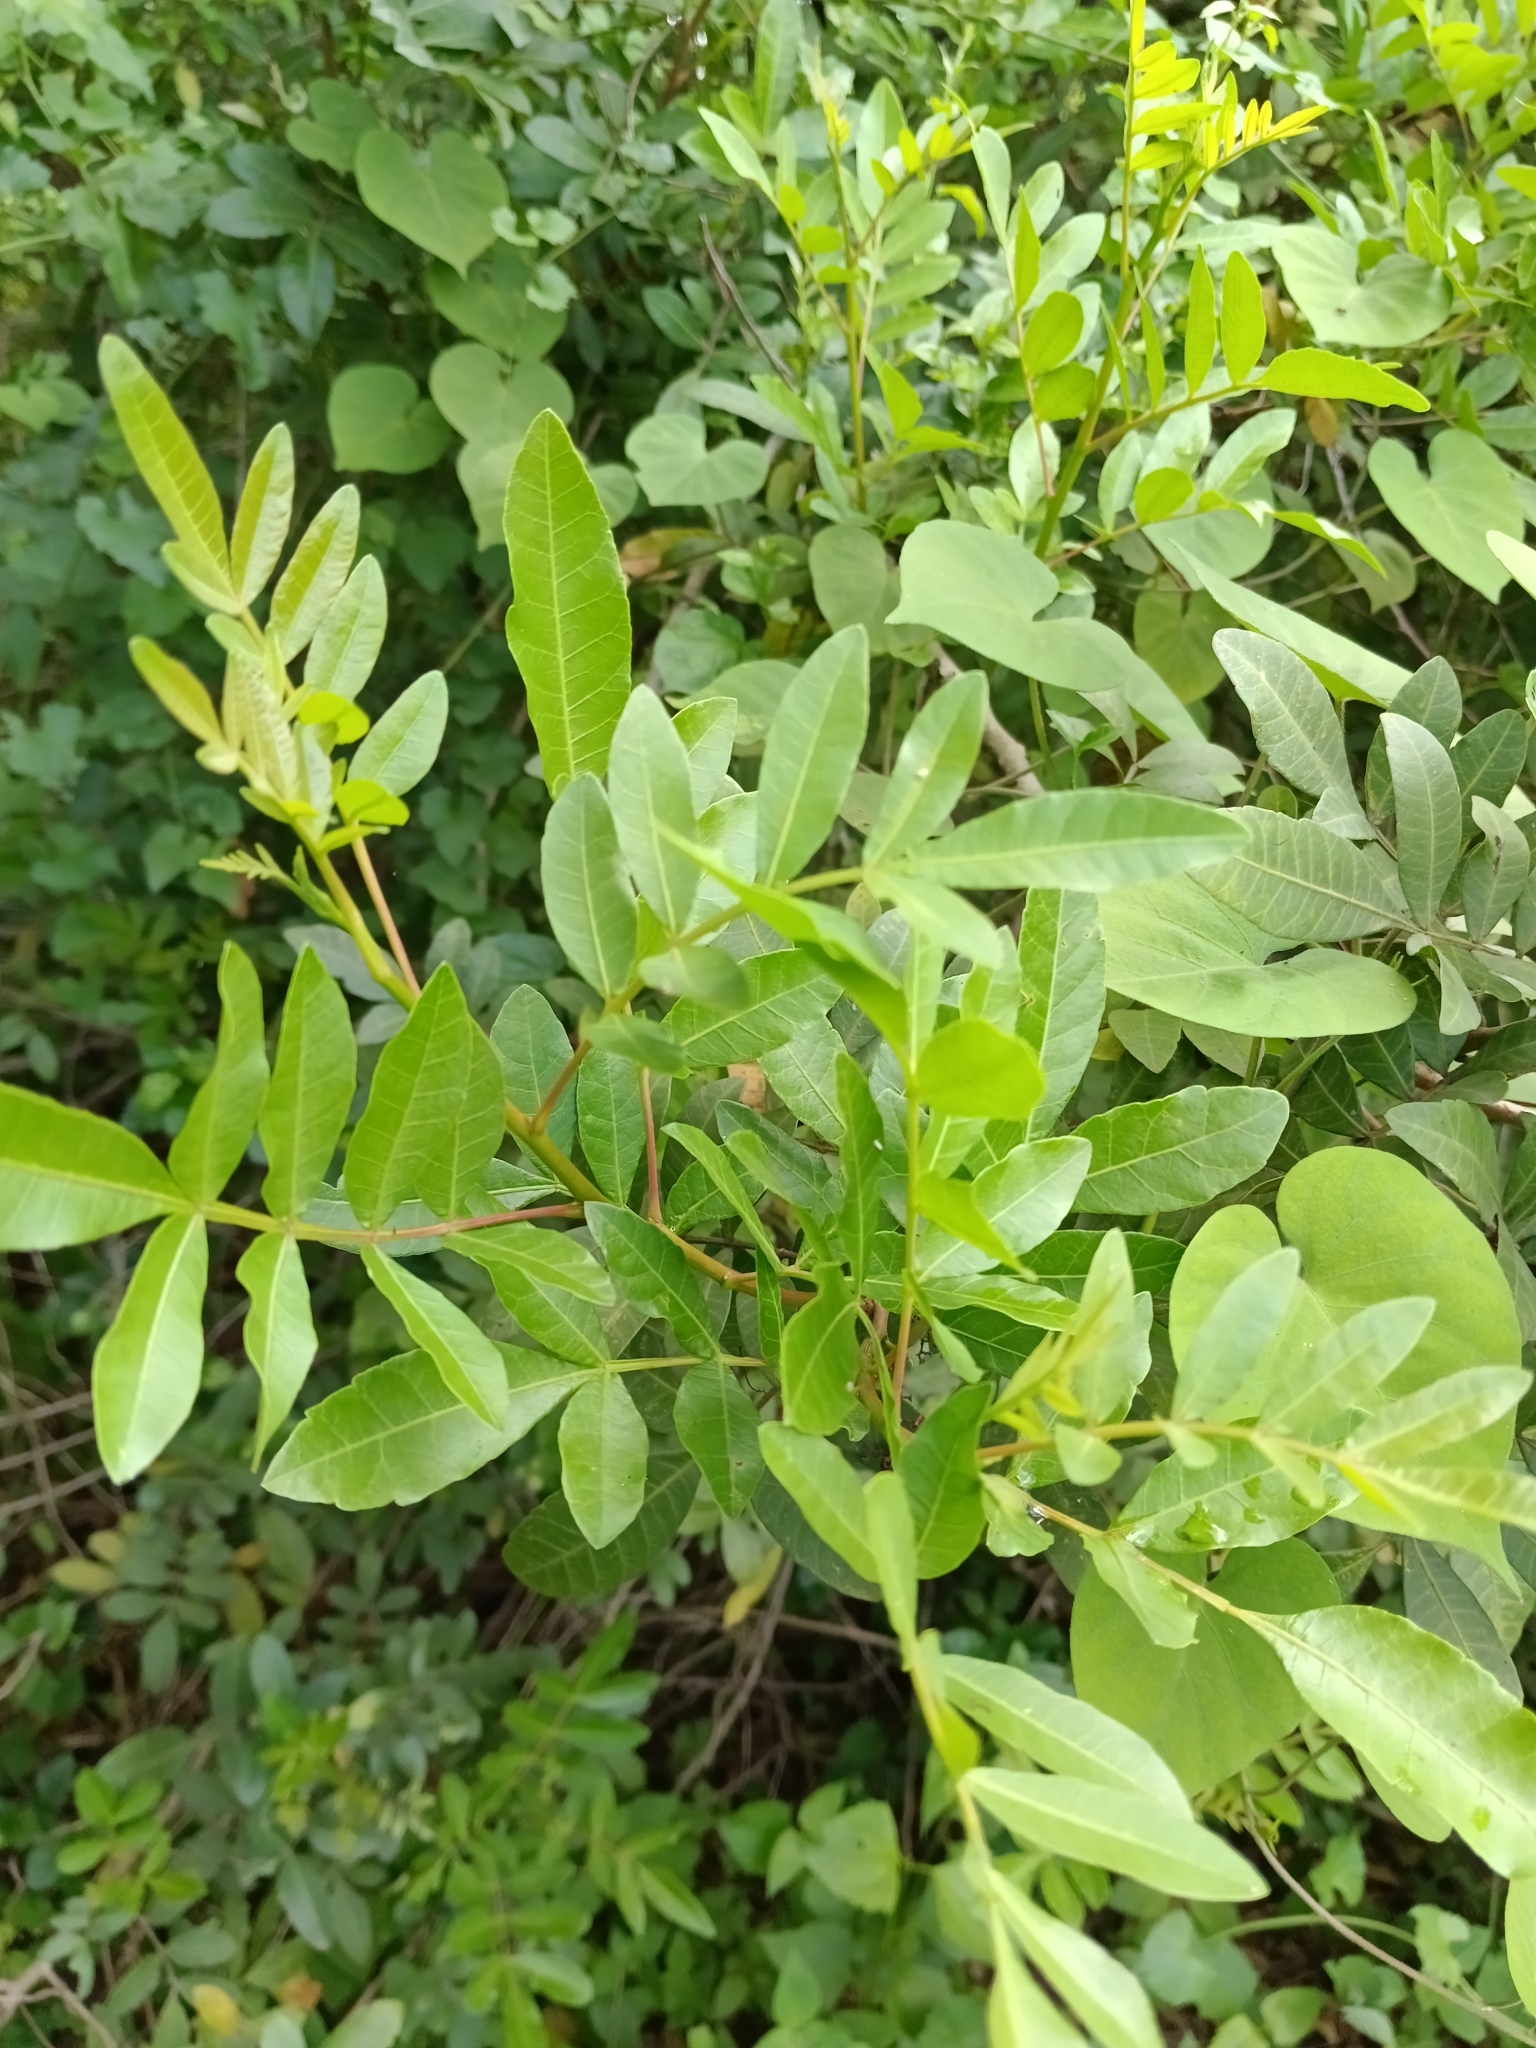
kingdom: Plantae
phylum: Tracheophyta
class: Magnoliopsida
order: Sapindales
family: Anacardiaceae
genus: Schinus
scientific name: Schinus terebinthifolia
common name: Brazilian peppertree
